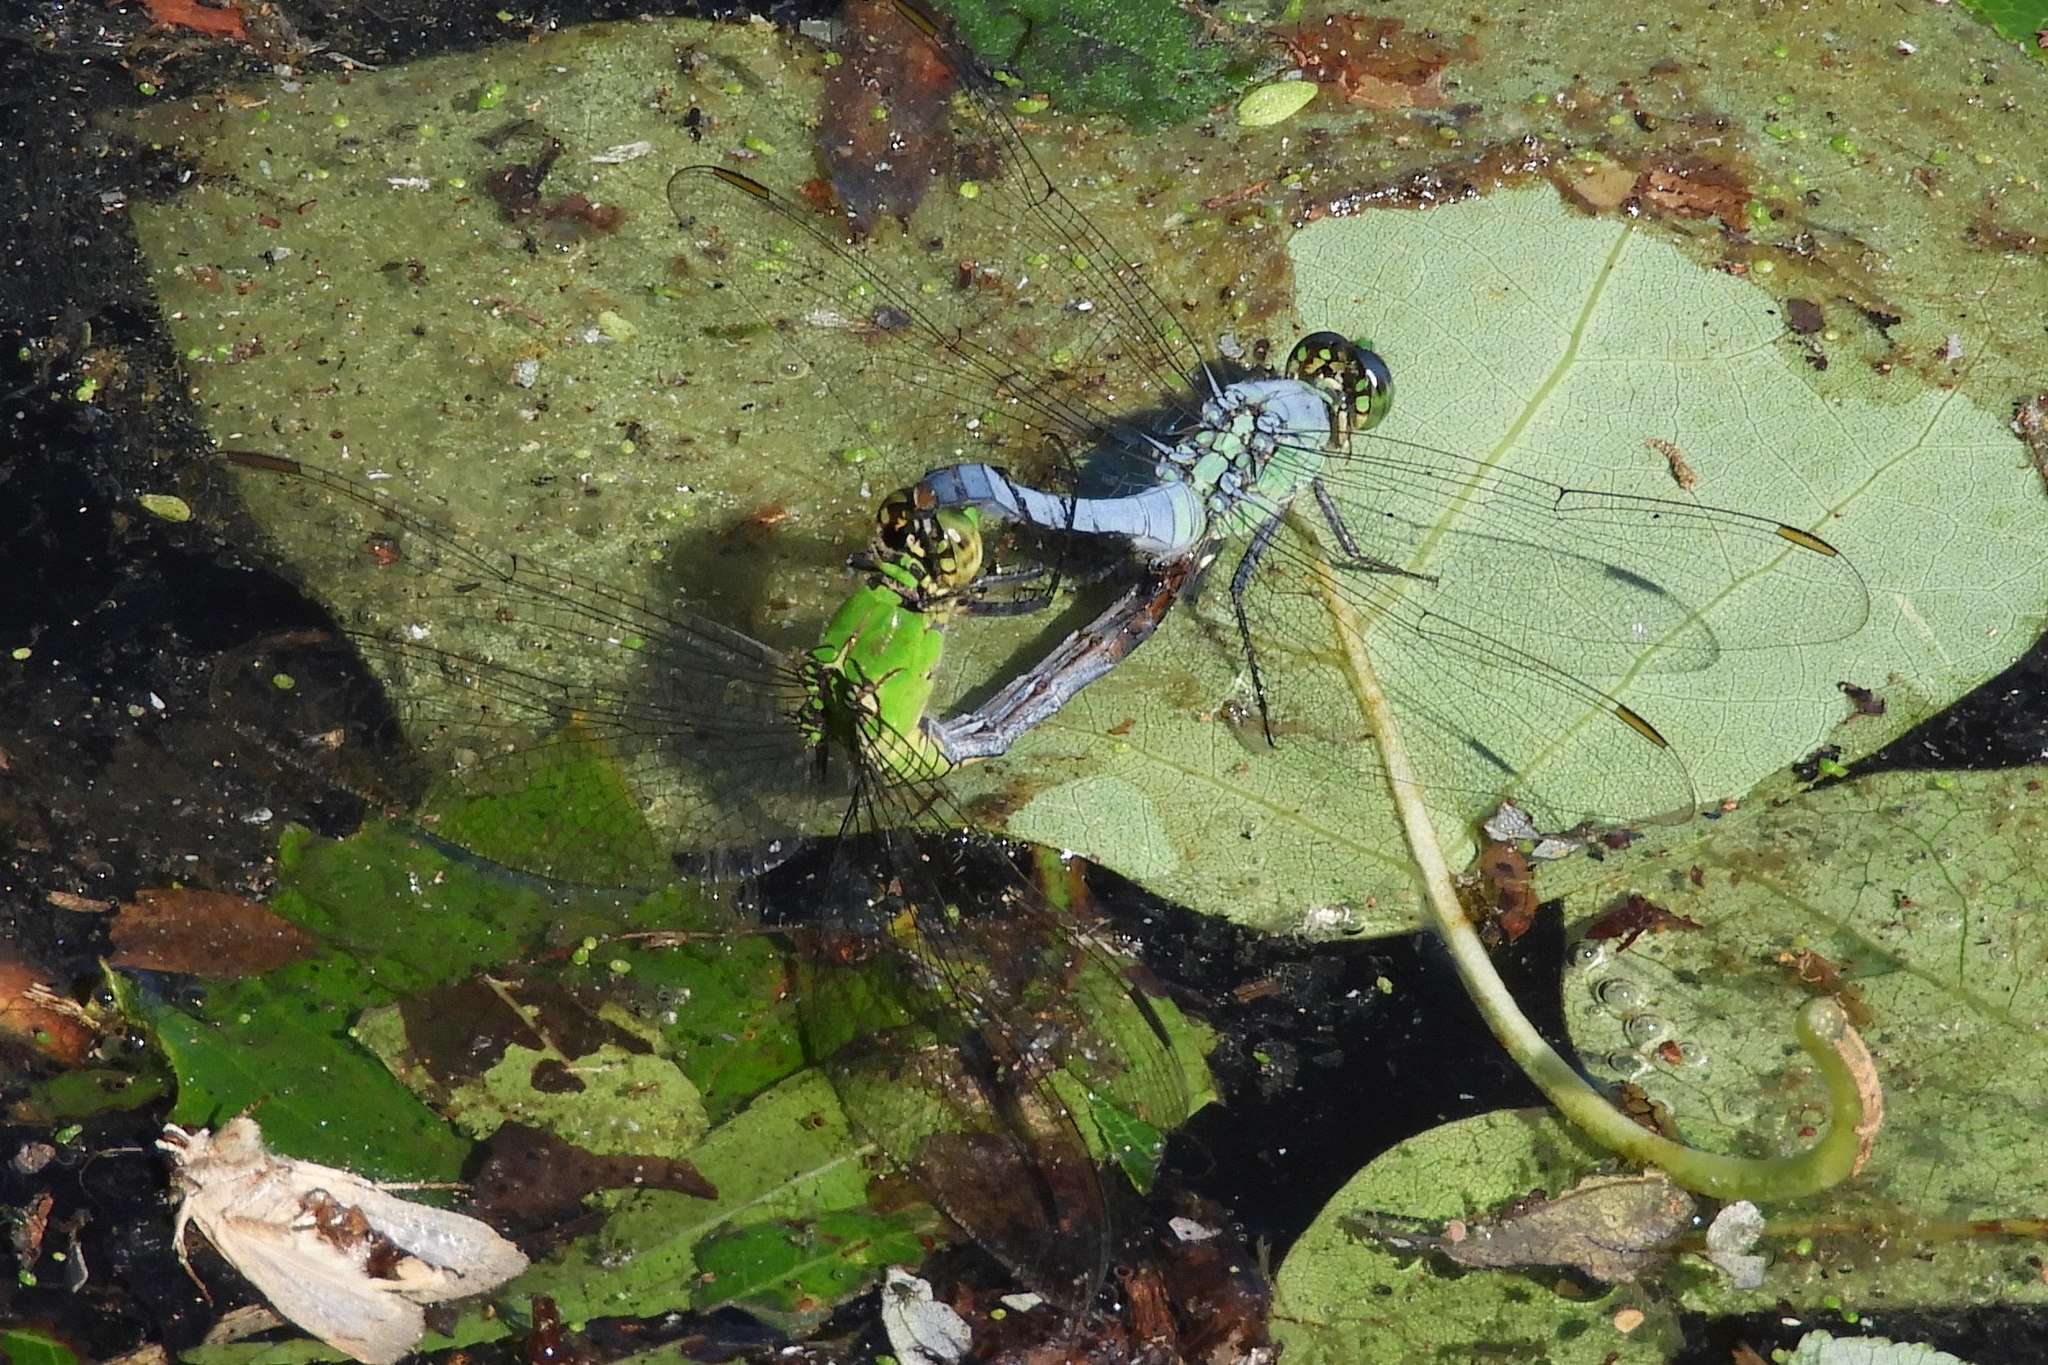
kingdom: Animalia
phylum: Arthropoda
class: Insecta
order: Odonata
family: Libellulidae
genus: Erythemis
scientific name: Erythemis simplicicollis
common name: Eastern pondhawk
